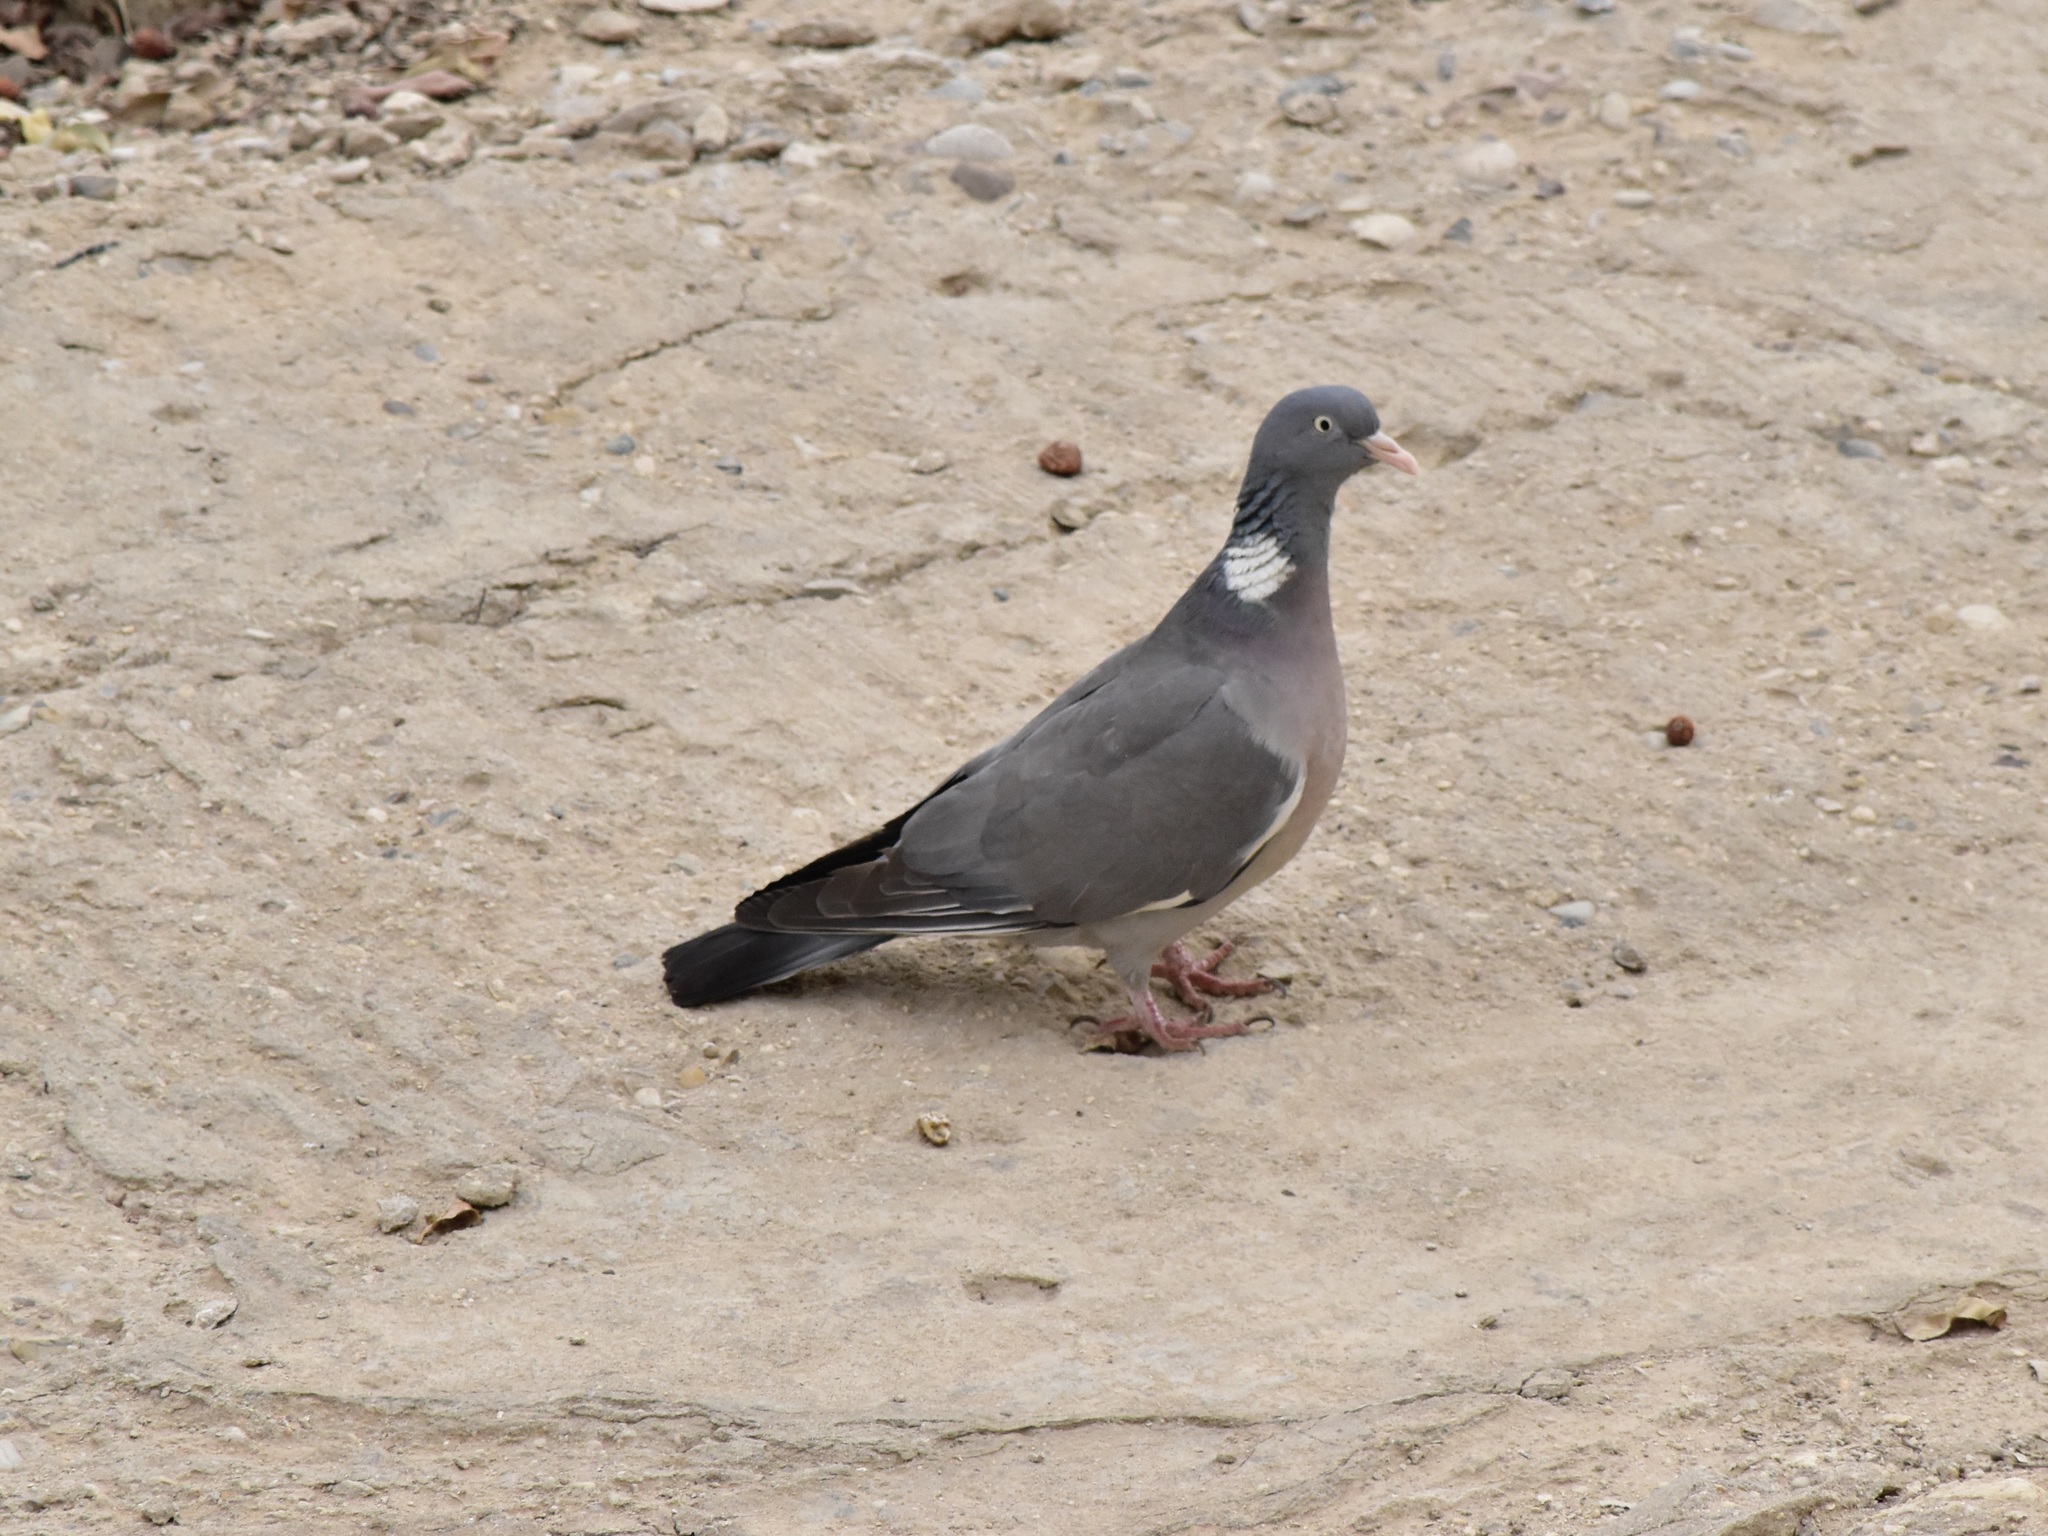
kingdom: Animalia
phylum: Chordata
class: Aves
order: Columbiformes
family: Columbidae
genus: Columba
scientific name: Columba palumbus
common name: Common wood pigeon
